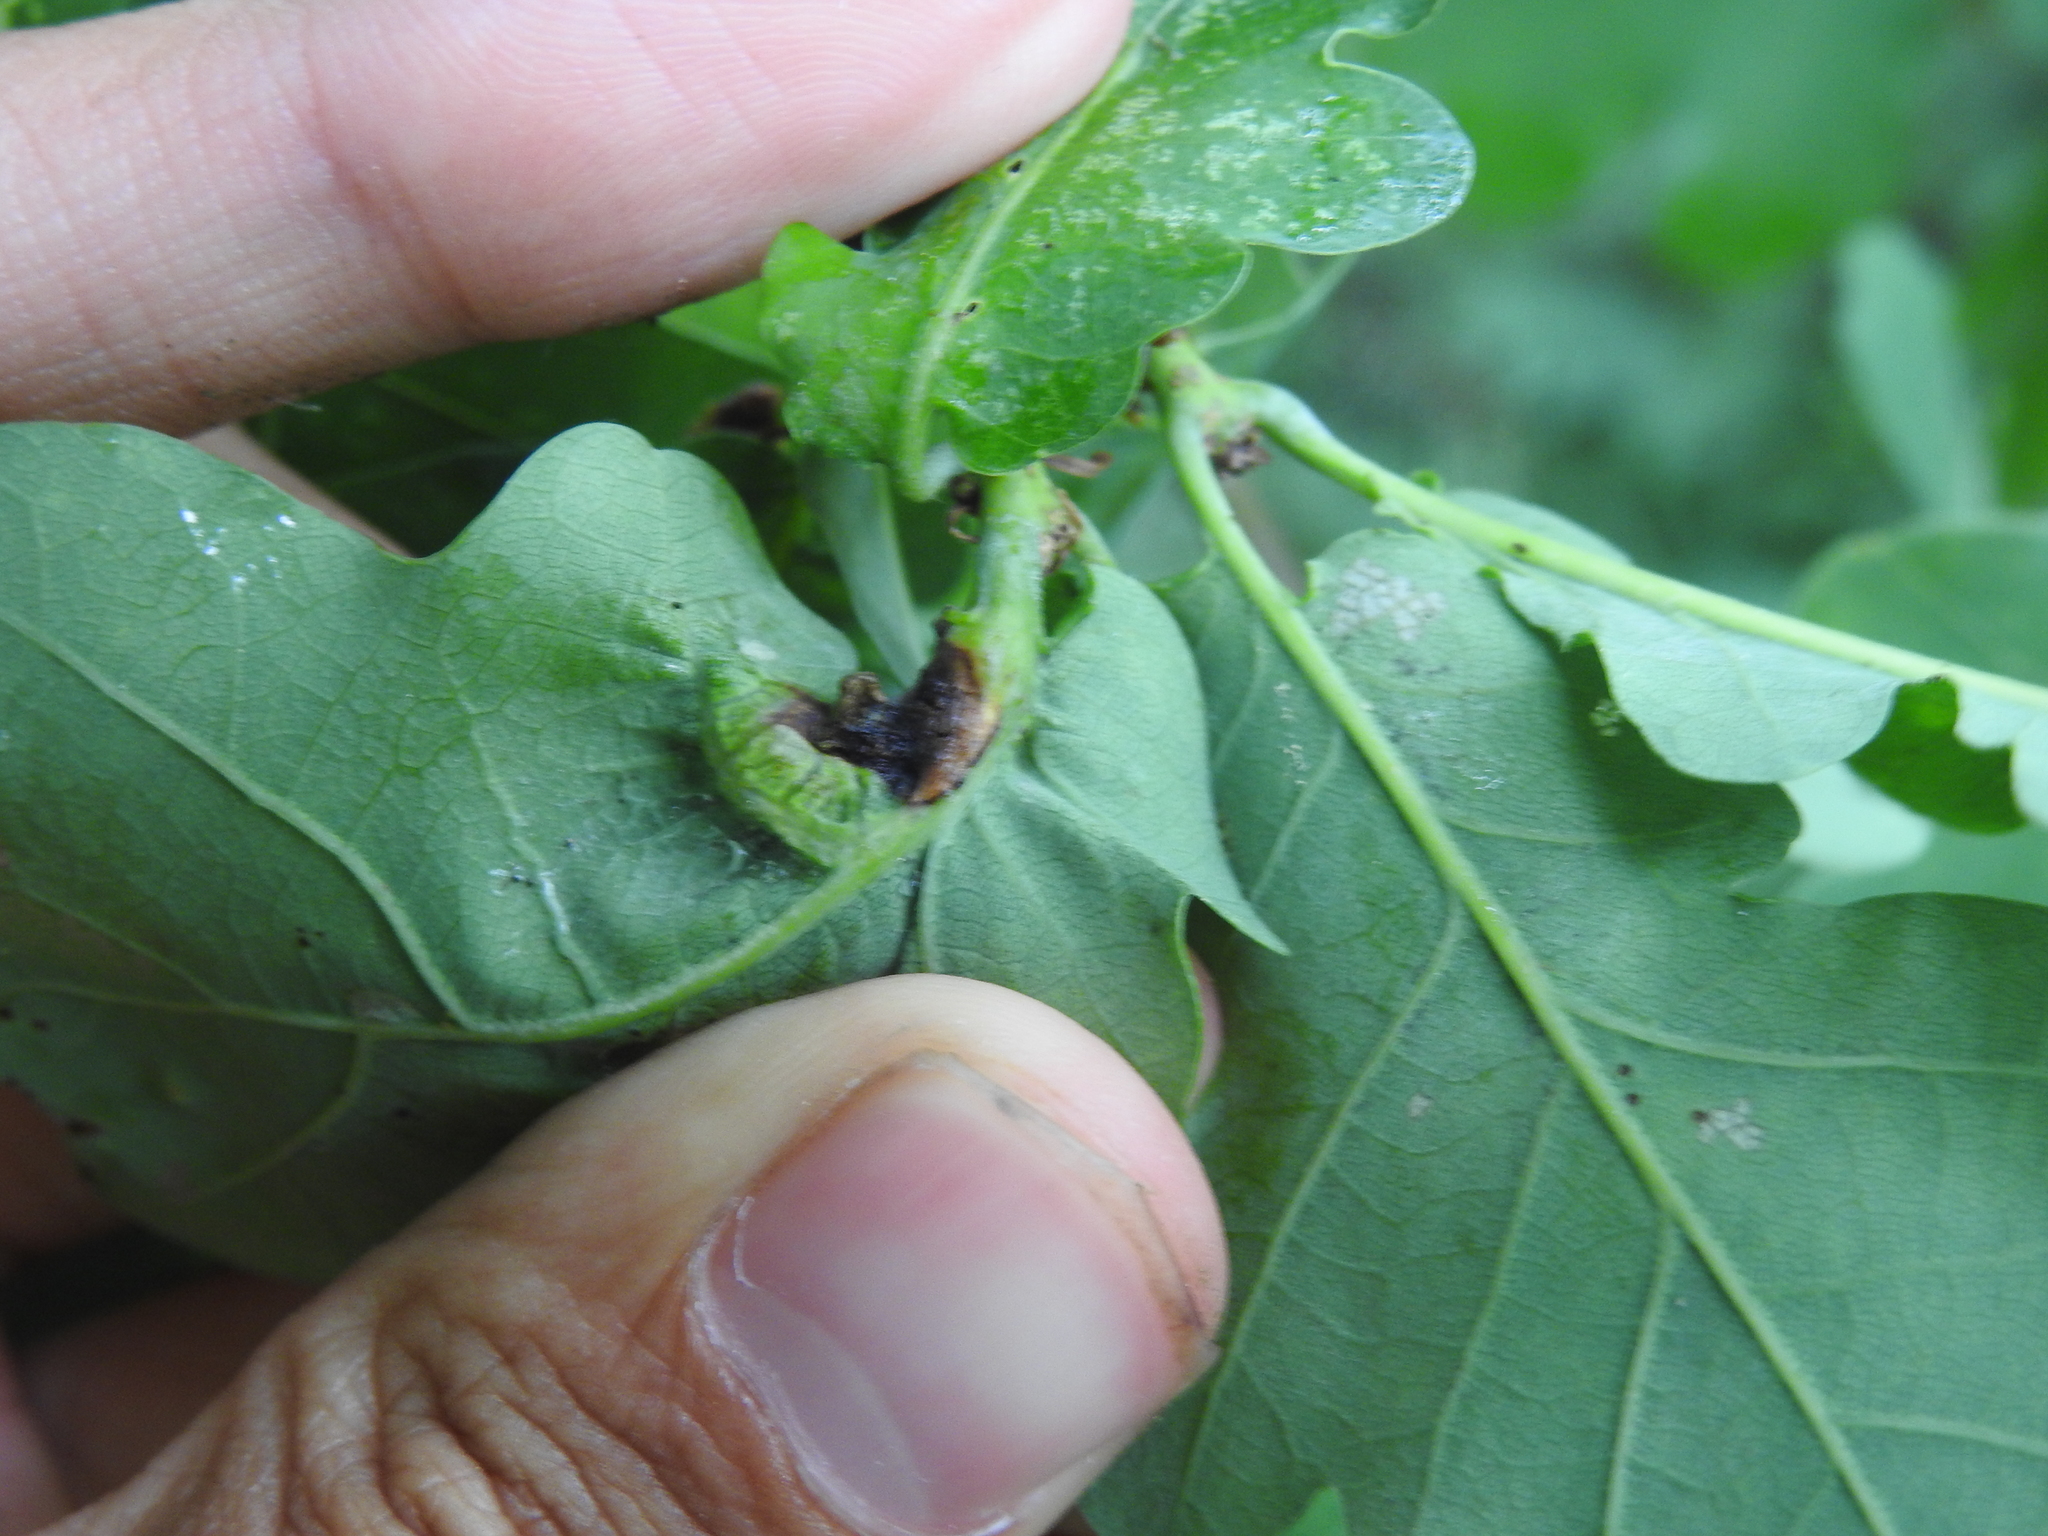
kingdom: Animalia
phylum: Arthropoda
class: Insecta
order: Hymenoptera
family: Cynipidae
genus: Andricus
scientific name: Andricus curvator
